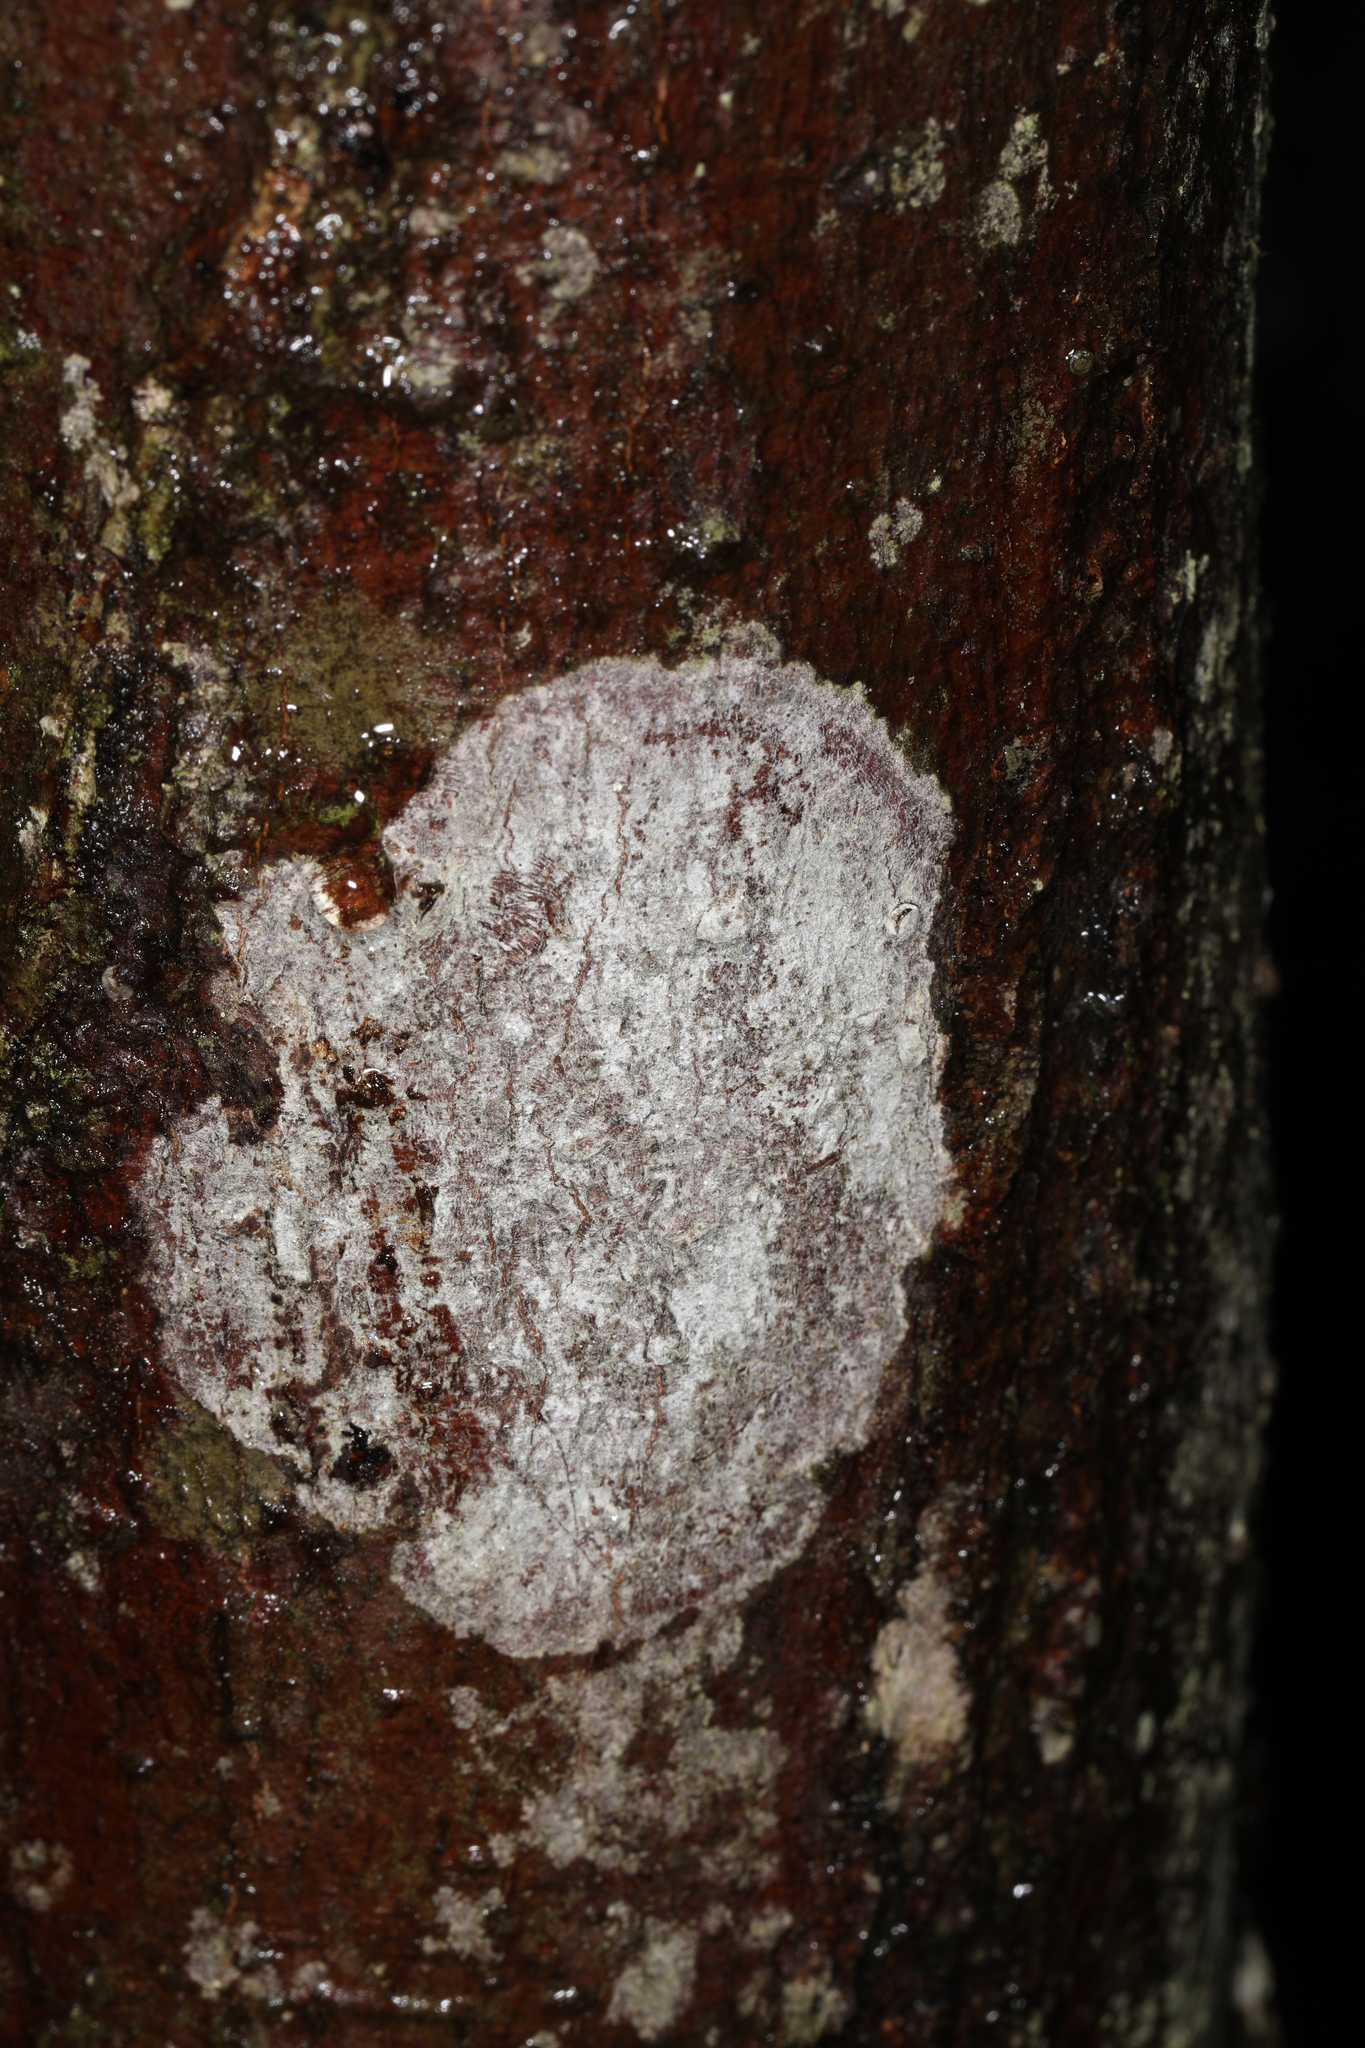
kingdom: Fungi
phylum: Ascomycota
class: Lecanoromycetes
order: Ostropales
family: Phlyctidaceae
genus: Phlyctis
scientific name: Phlyctis argena
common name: Whitewash lichen
